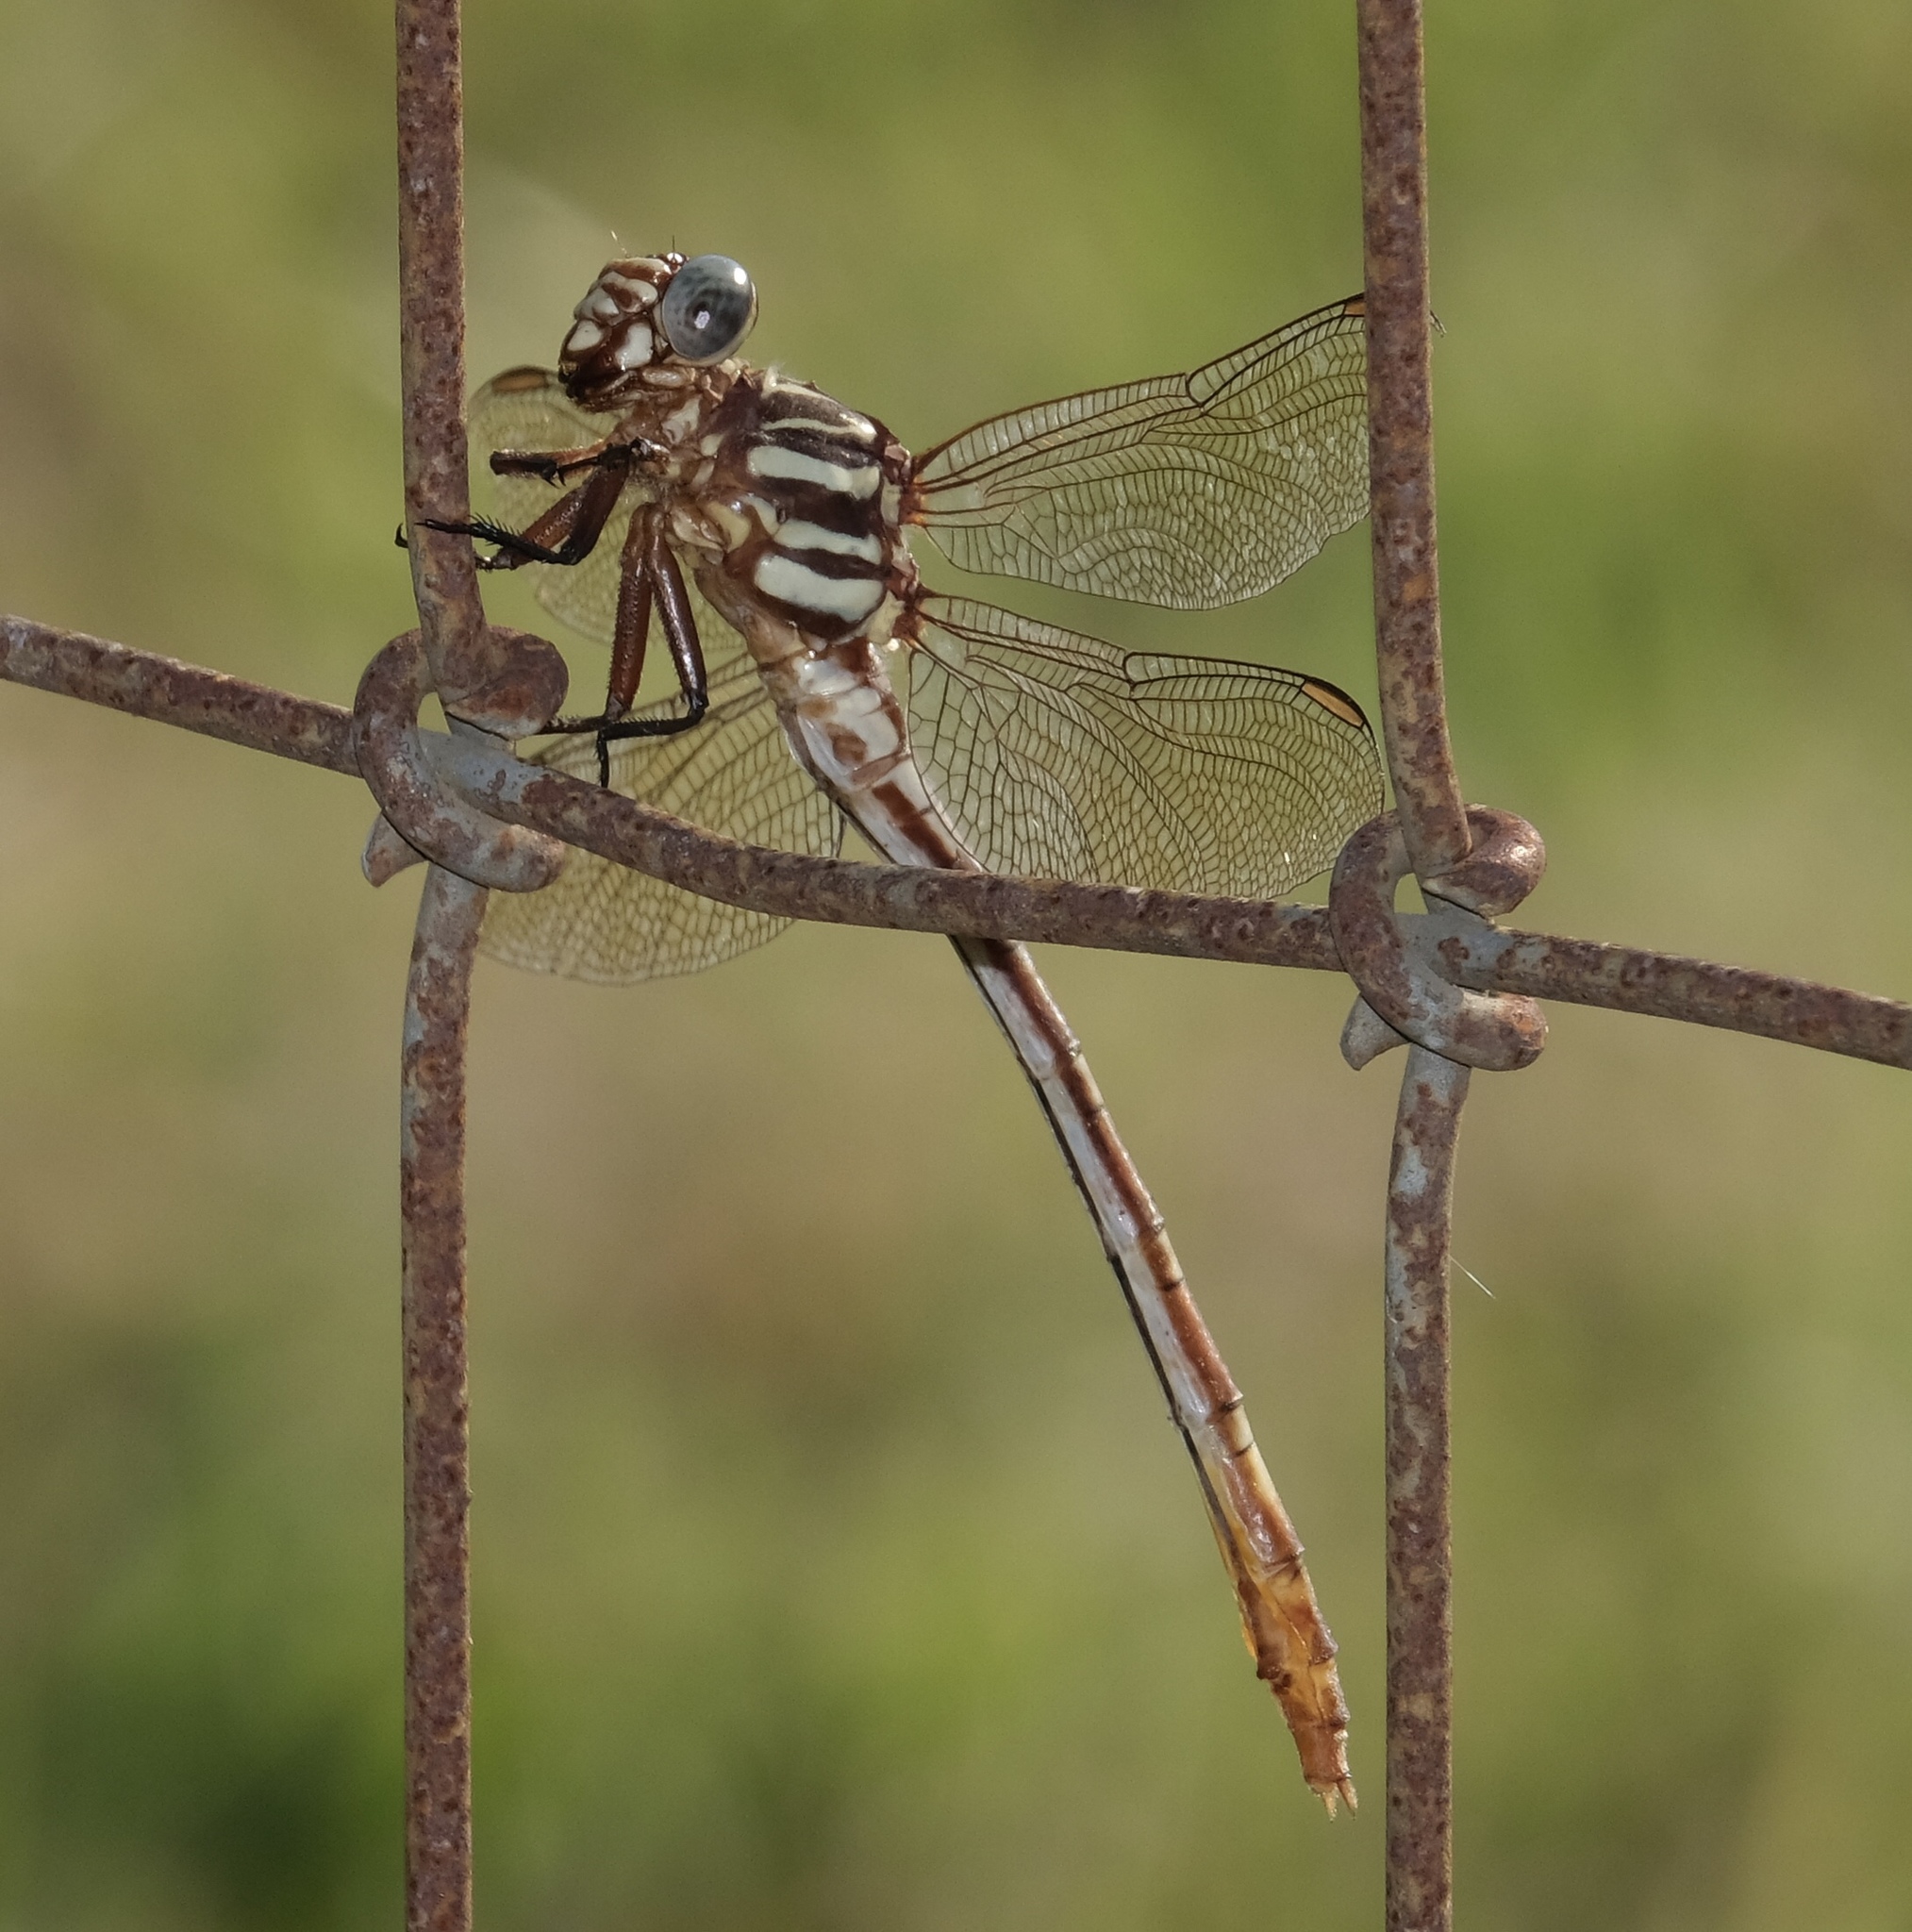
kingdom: Animalia
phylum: Arthropoda
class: Insecta
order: Odonata
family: Gomphidae
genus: Aphylla
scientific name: Aphylla angustifolia
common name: Broad-striped forceptail
